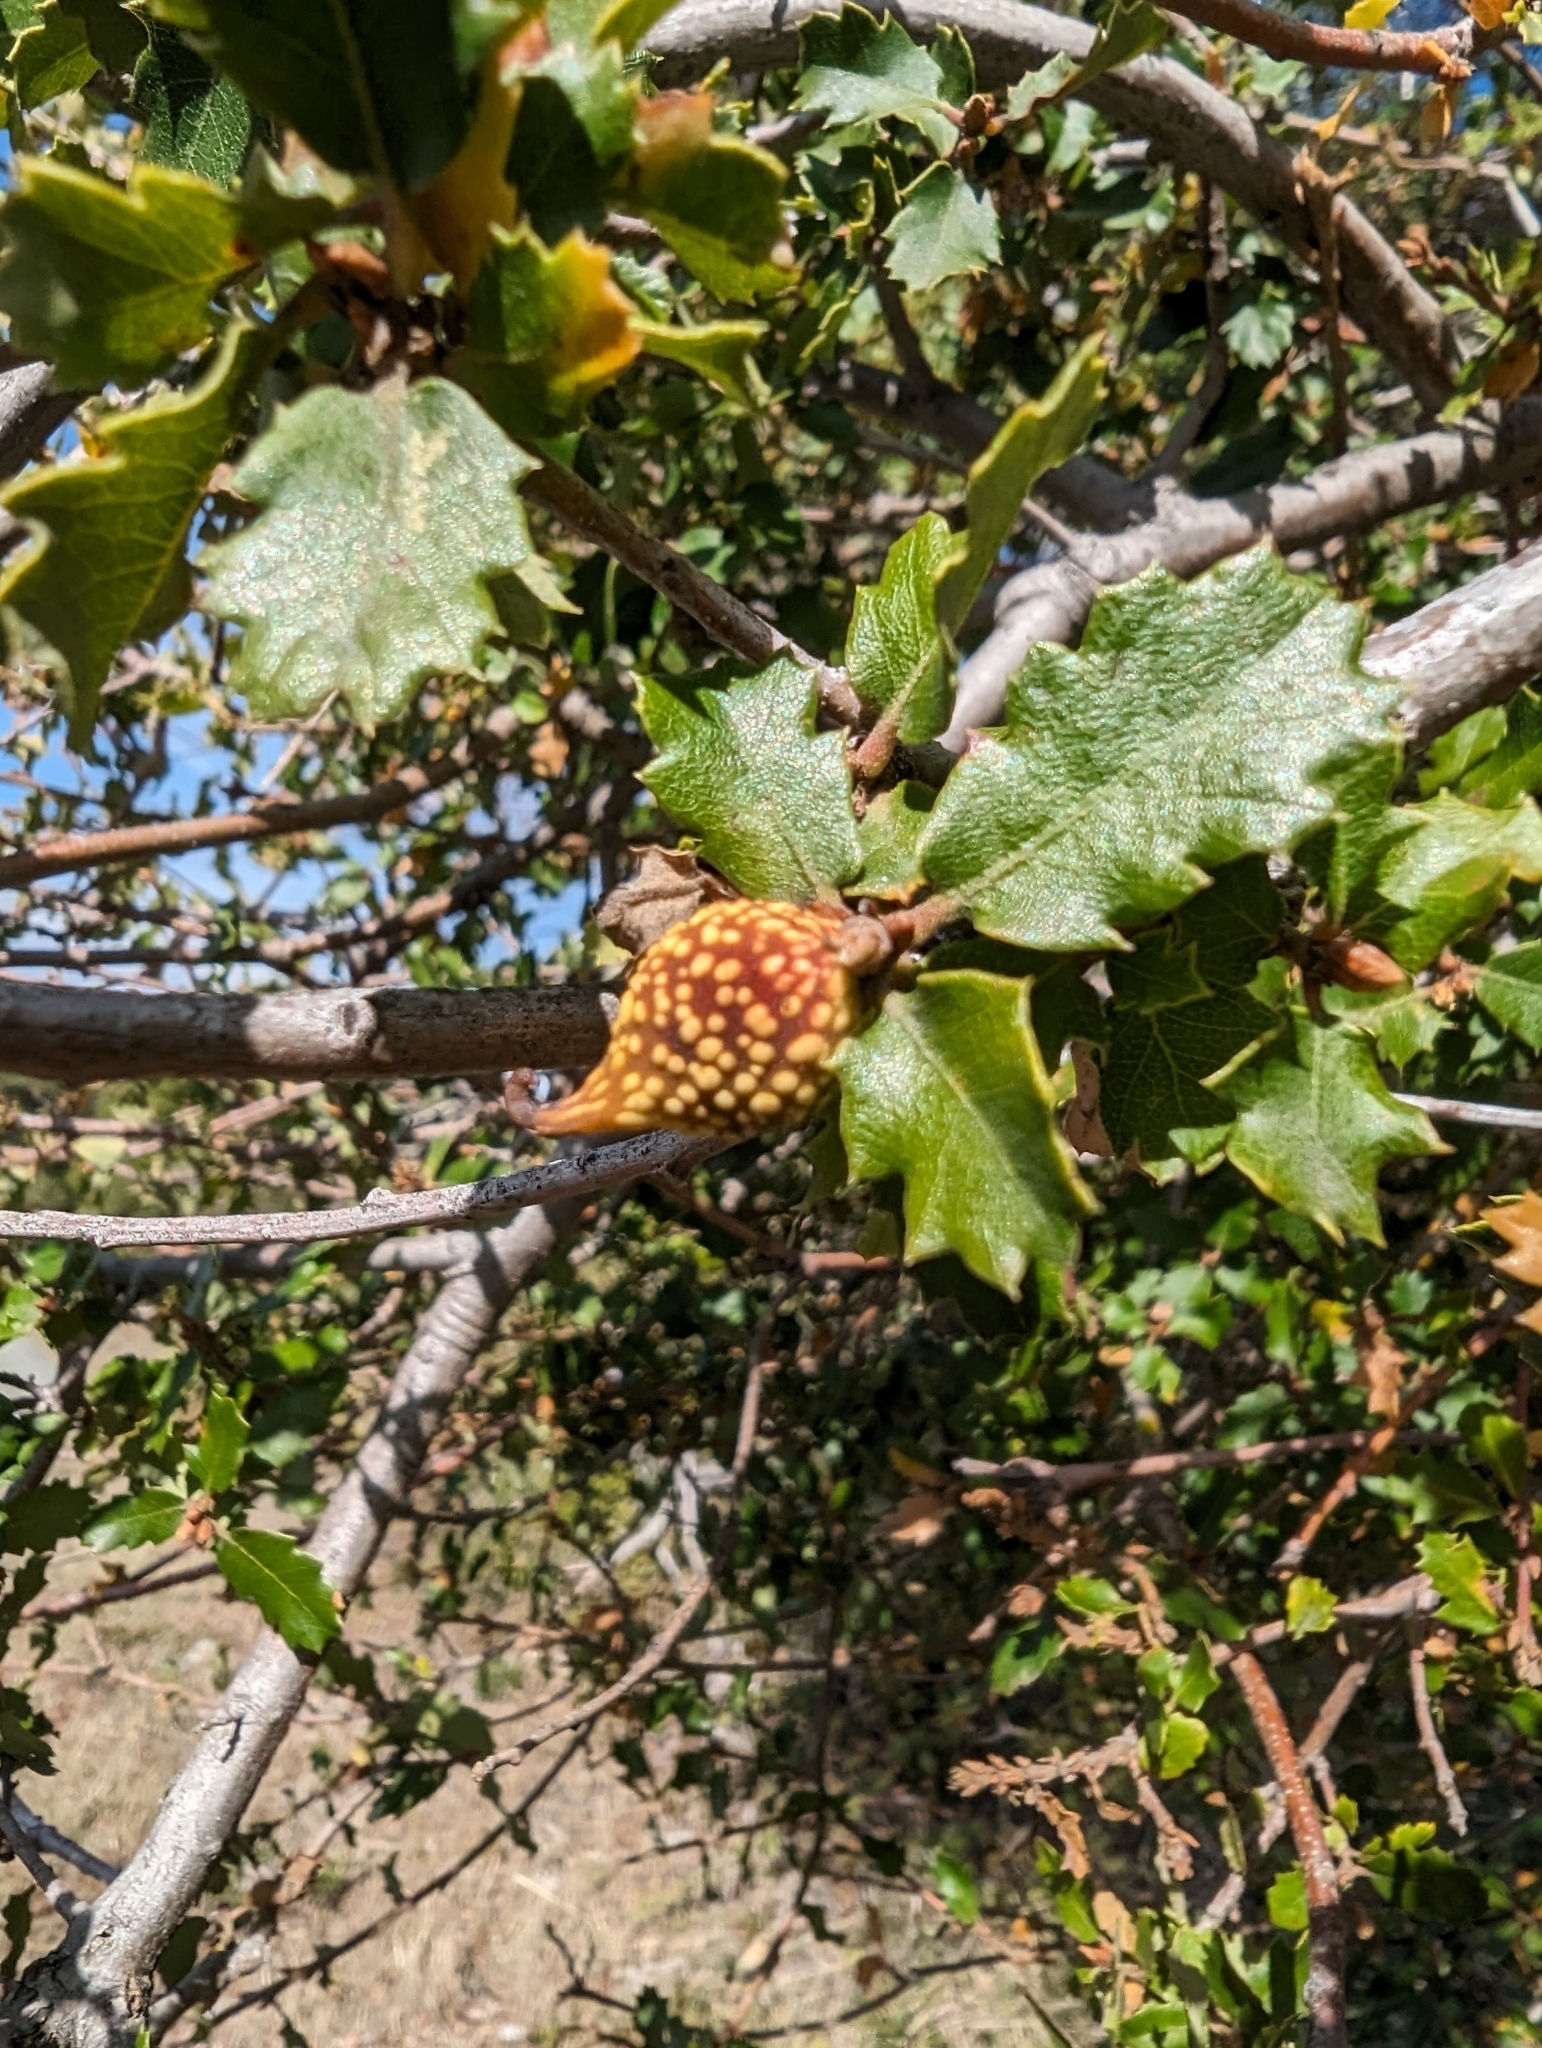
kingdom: Animalia
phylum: Arthropoda
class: Insecta
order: Hymenoptera
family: Cynipidae
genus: Burnettweldia
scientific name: Burnettweldia
